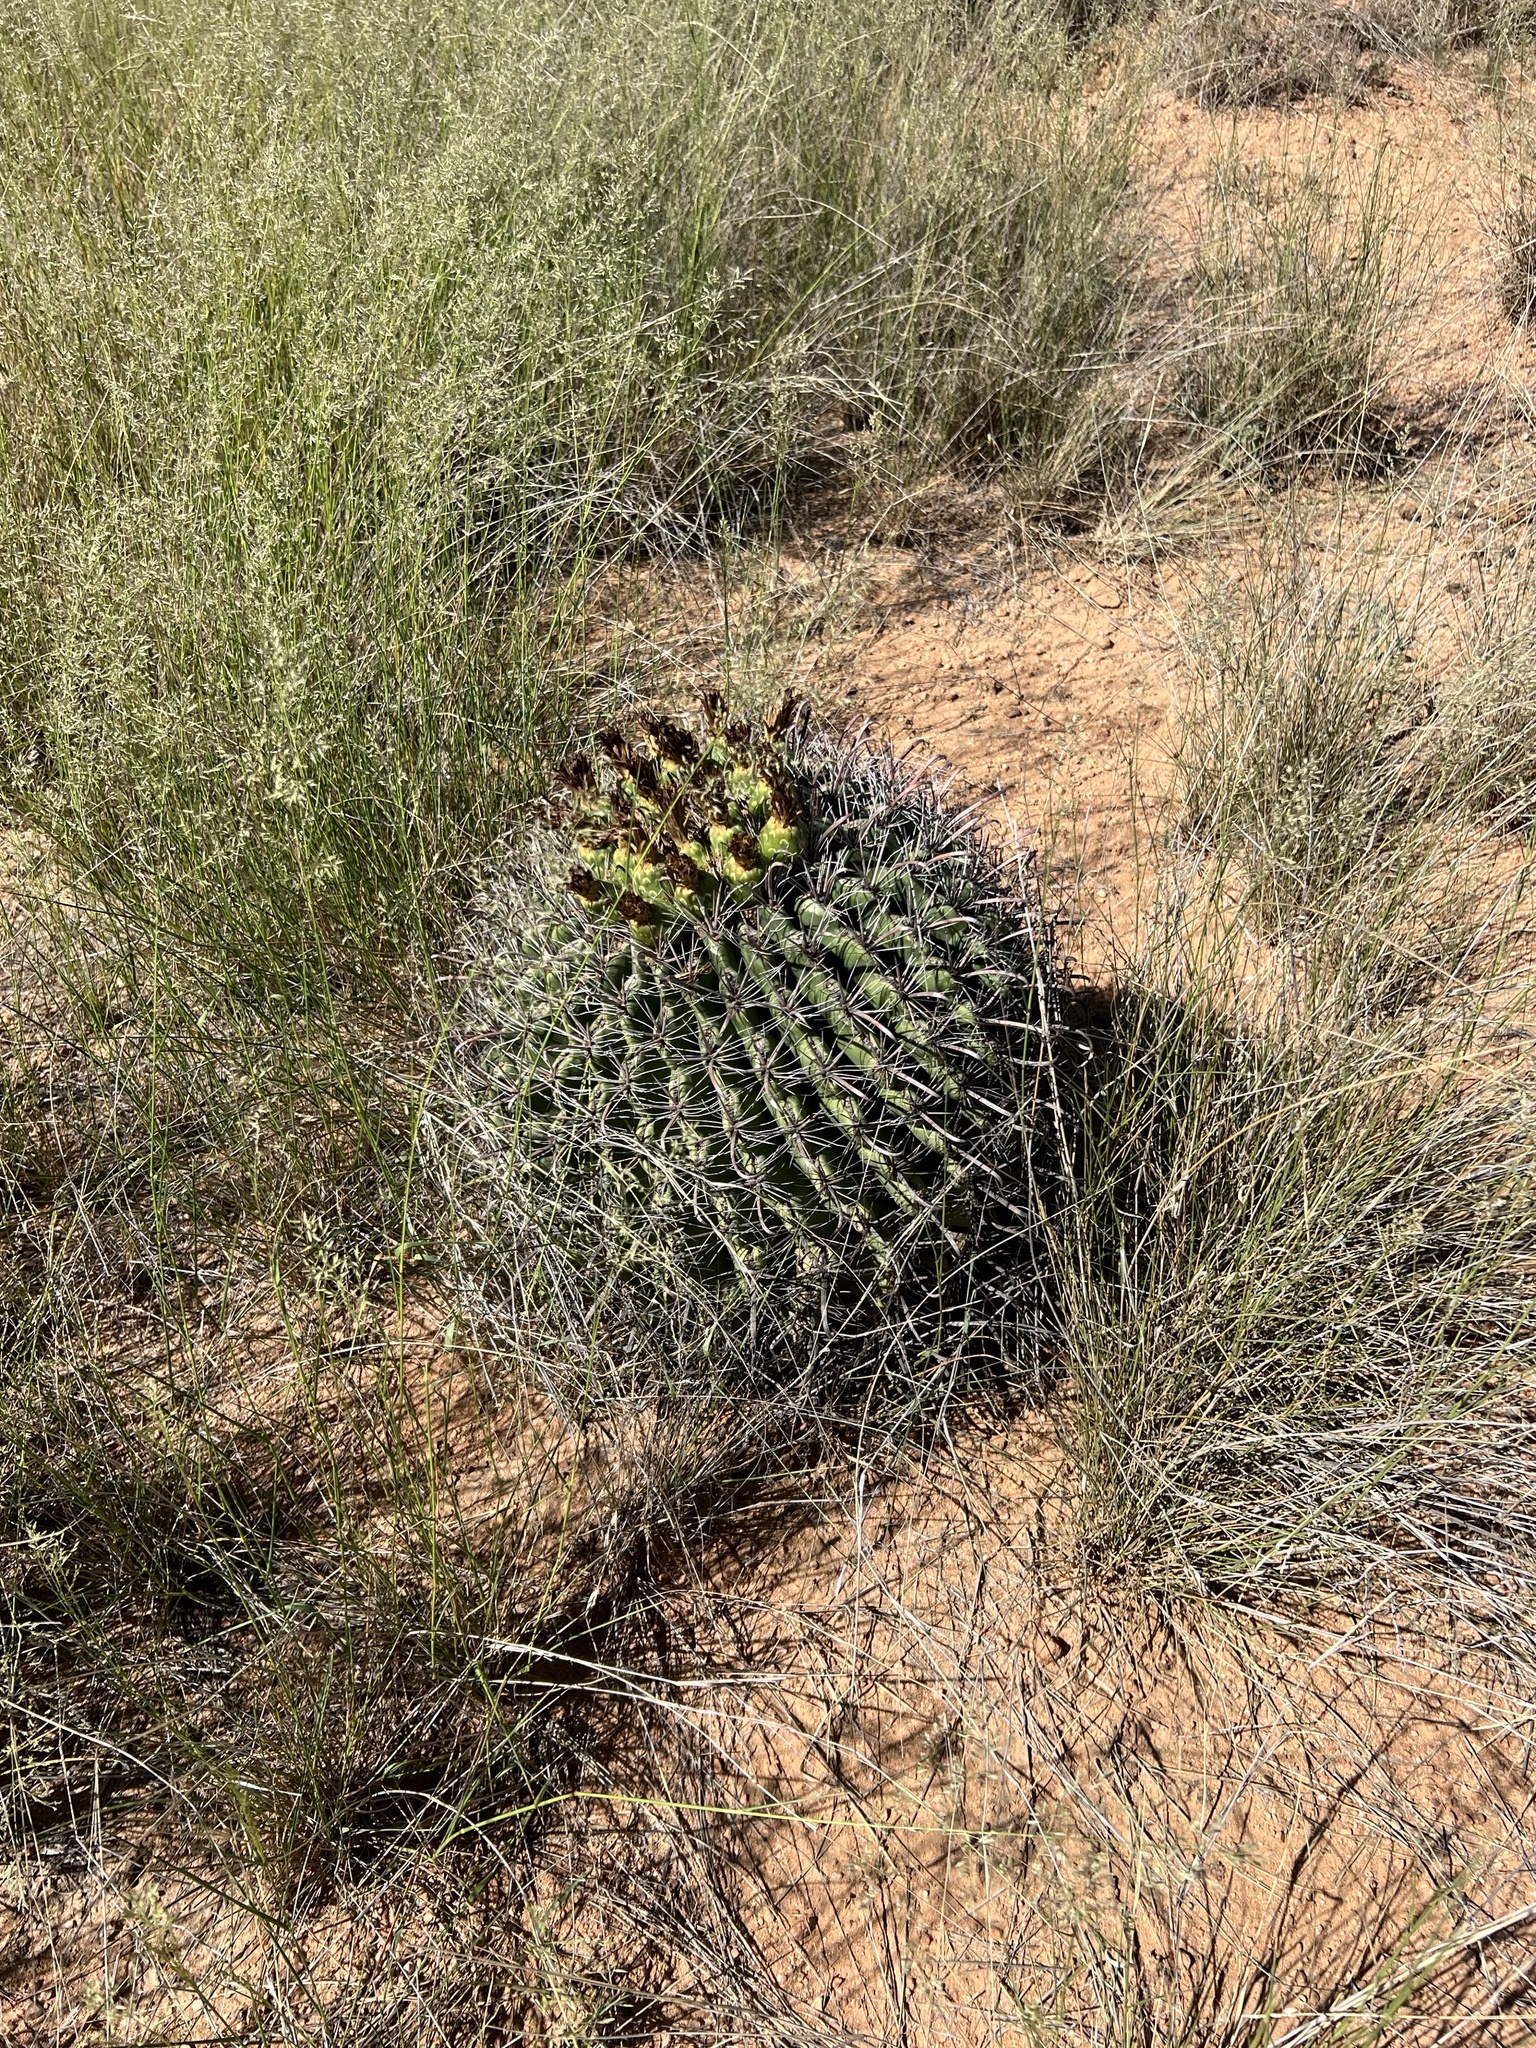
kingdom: Plantae
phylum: Tracheophyta
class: Magnoliopsida
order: Caryophyllales
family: Cactaceae
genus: Ferocactus
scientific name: Ferocactus wislizeni
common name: Candy barrel cactus
